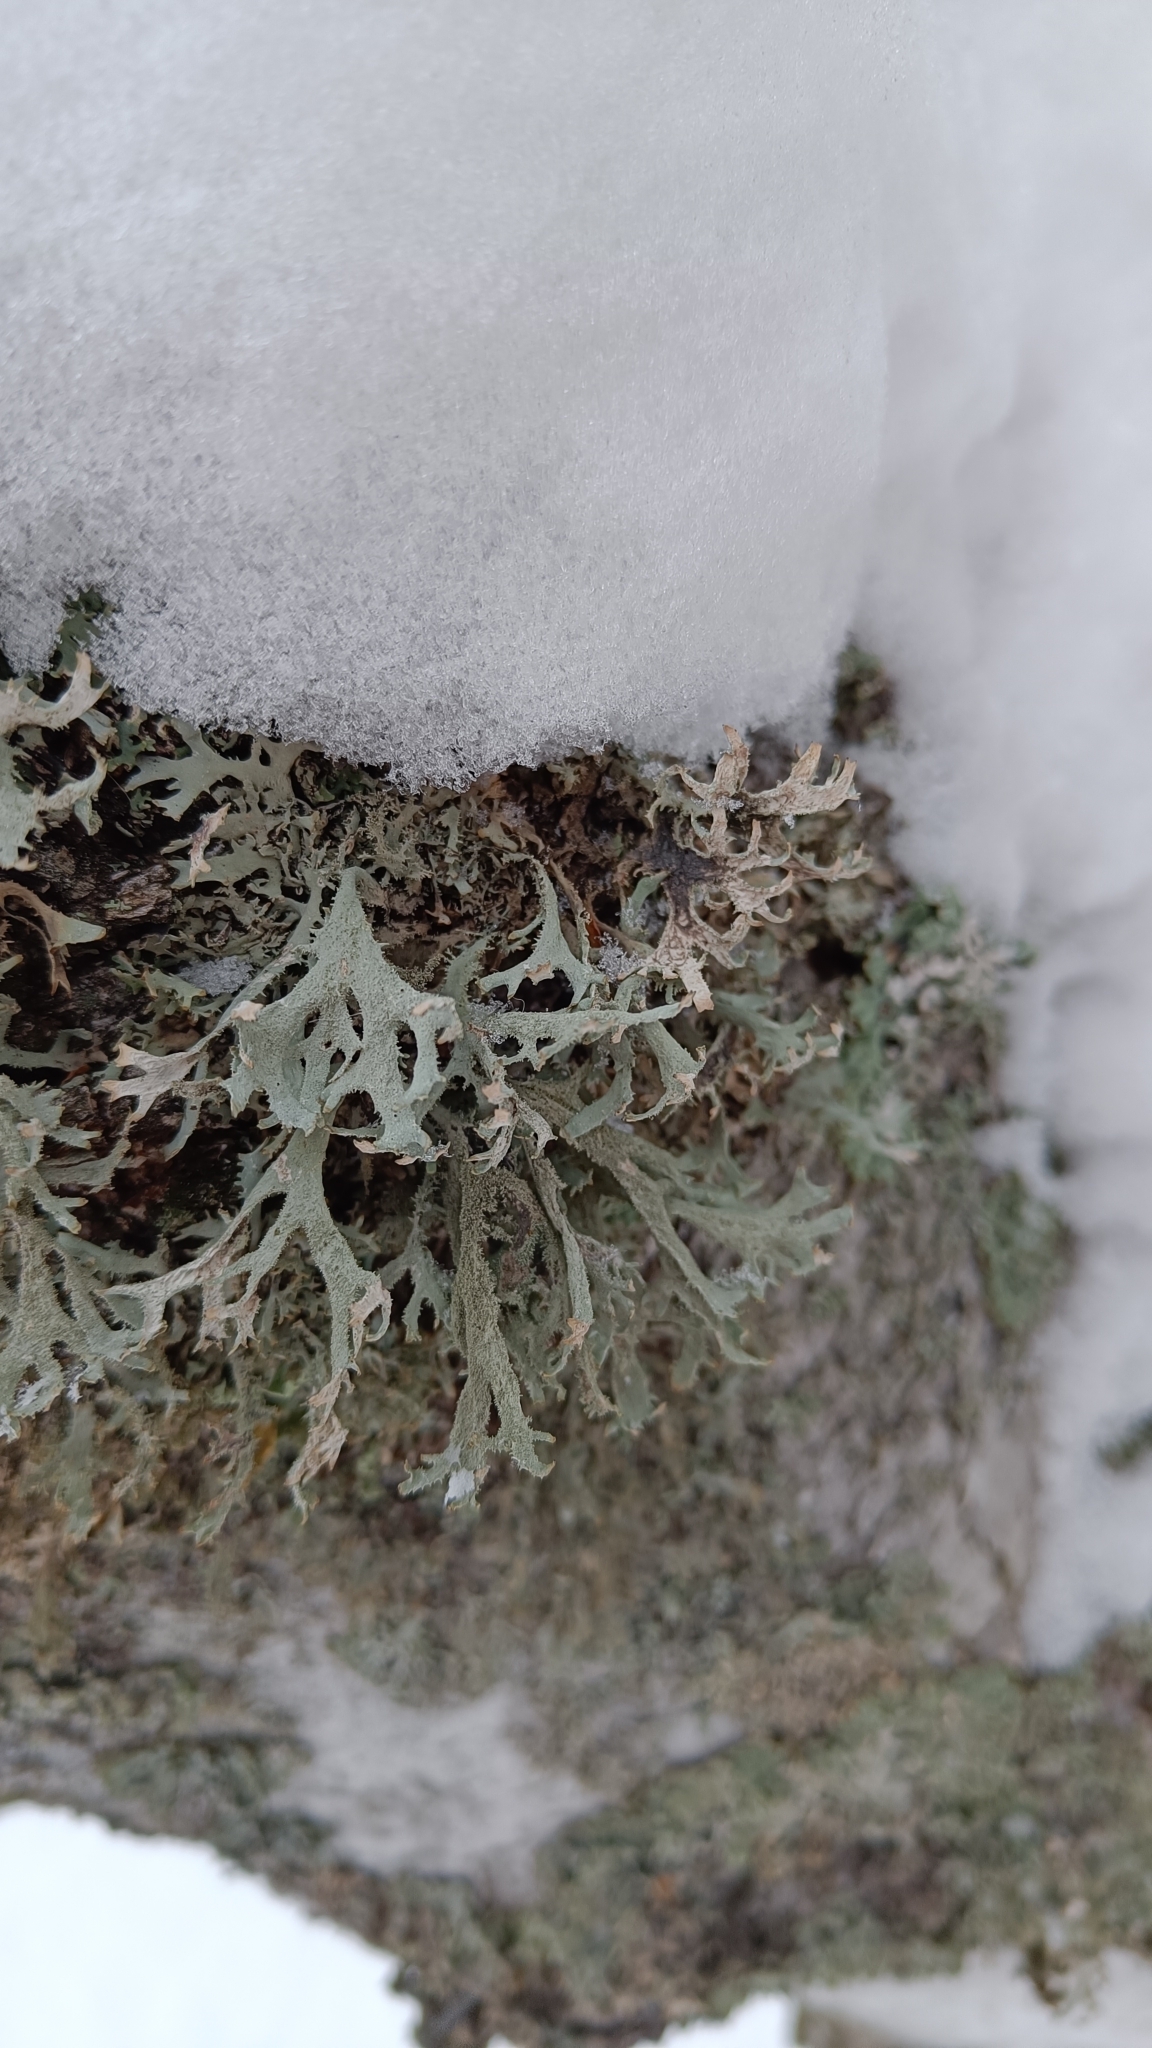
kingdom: Fungi
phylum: Ascomycota
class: Lecanoromycetes
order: Lecanorales
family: Parmeliaceae
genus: Pseudevernia
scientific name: Pseudevernia furfuracea
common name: Tree moss
